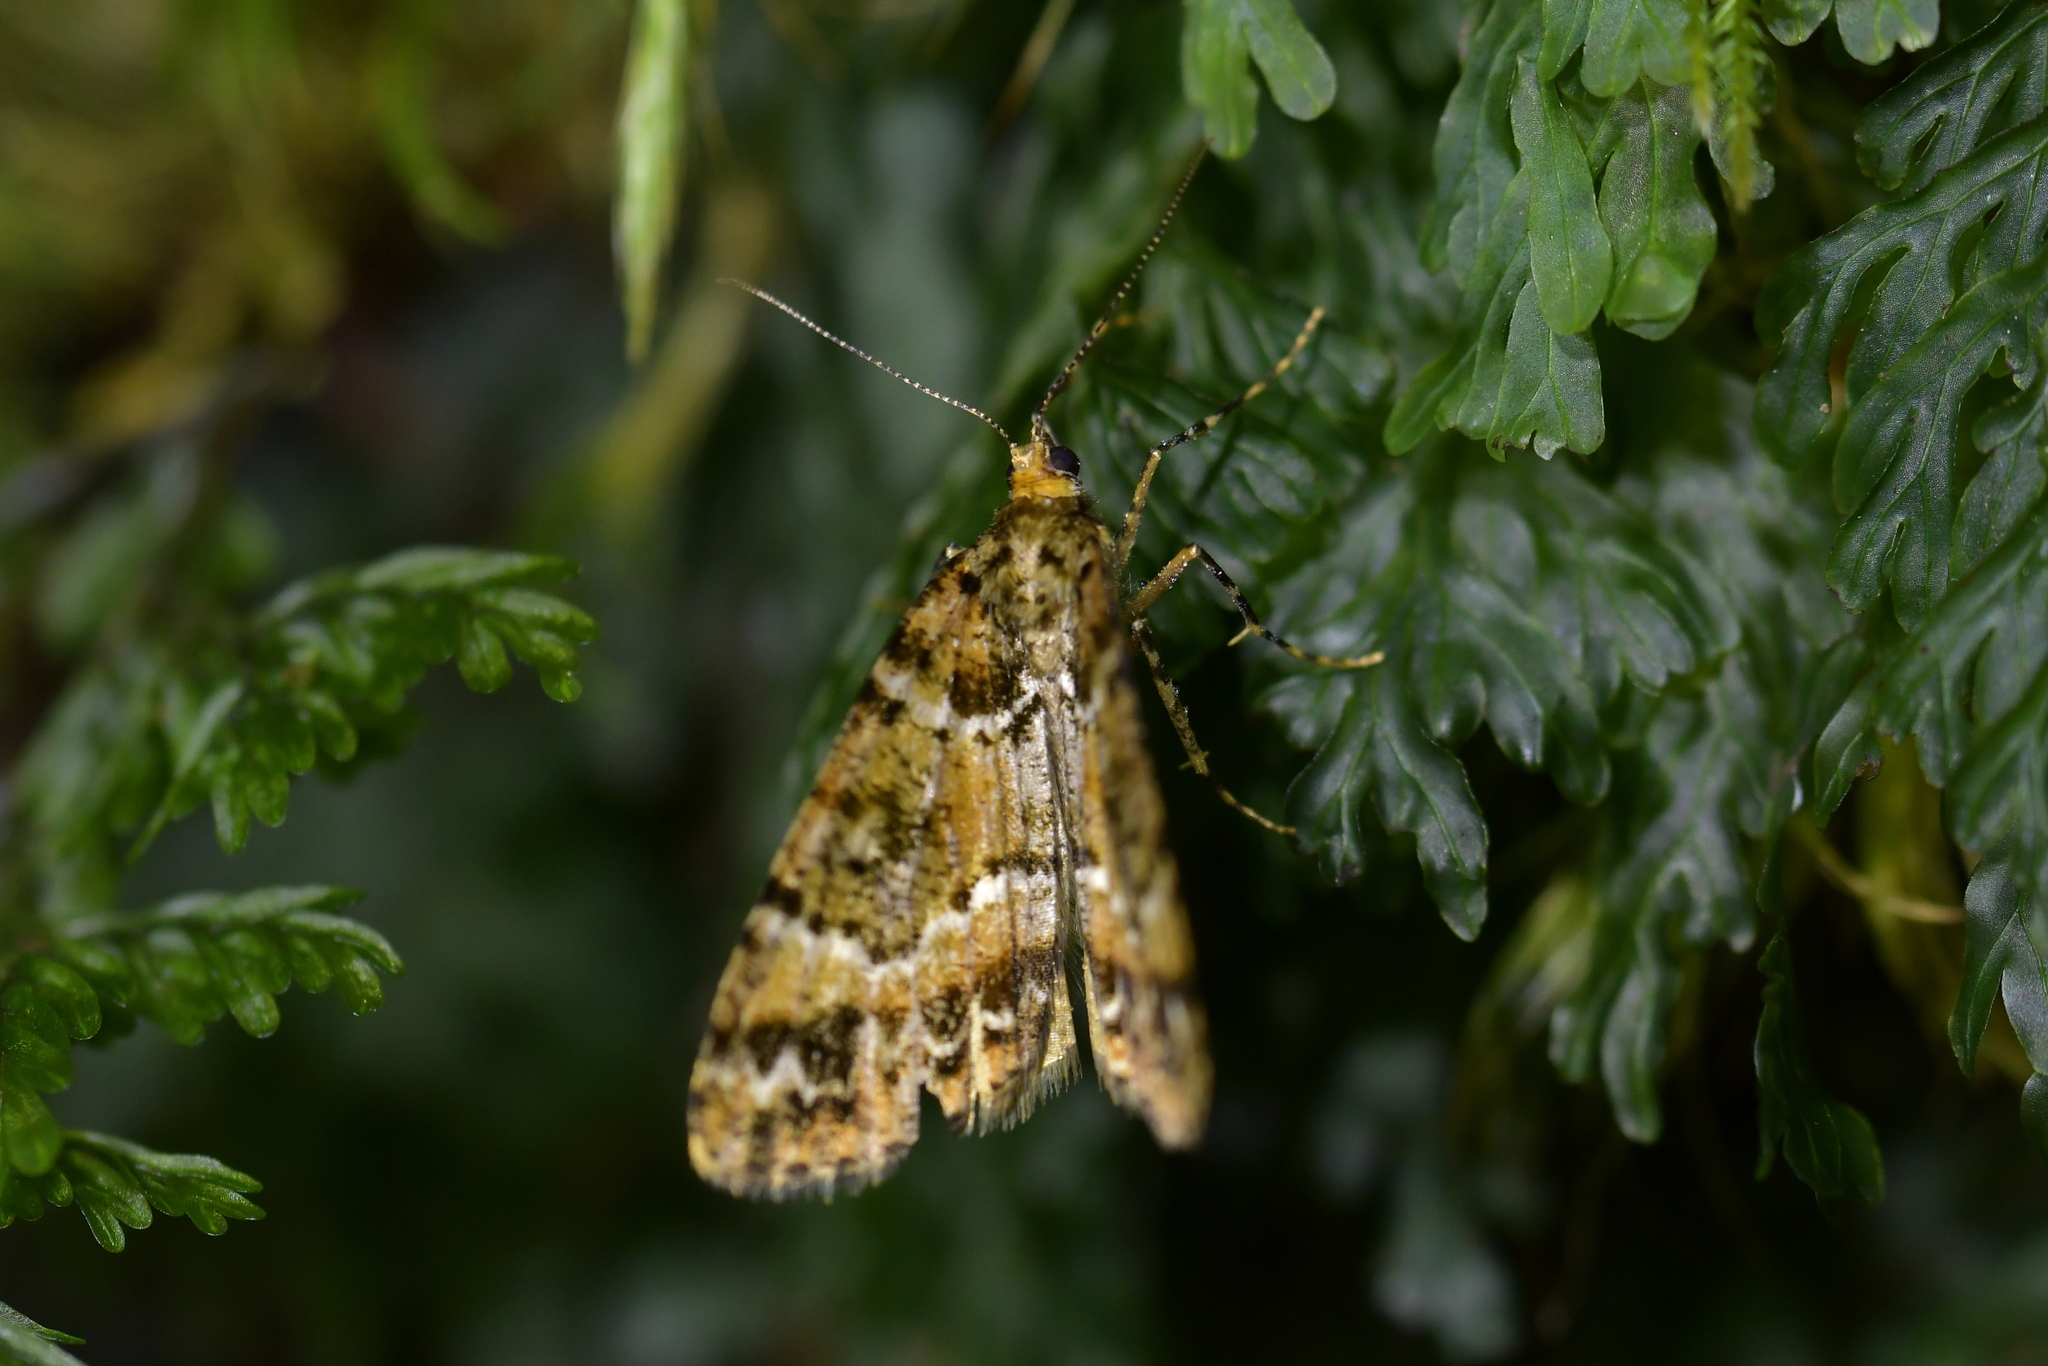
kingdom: Animalia
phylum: Arthropoda
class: Insecta
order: Lepidoptera
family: Geometridae
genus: Pseudocoremia
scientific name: Pseudocoremia productata
